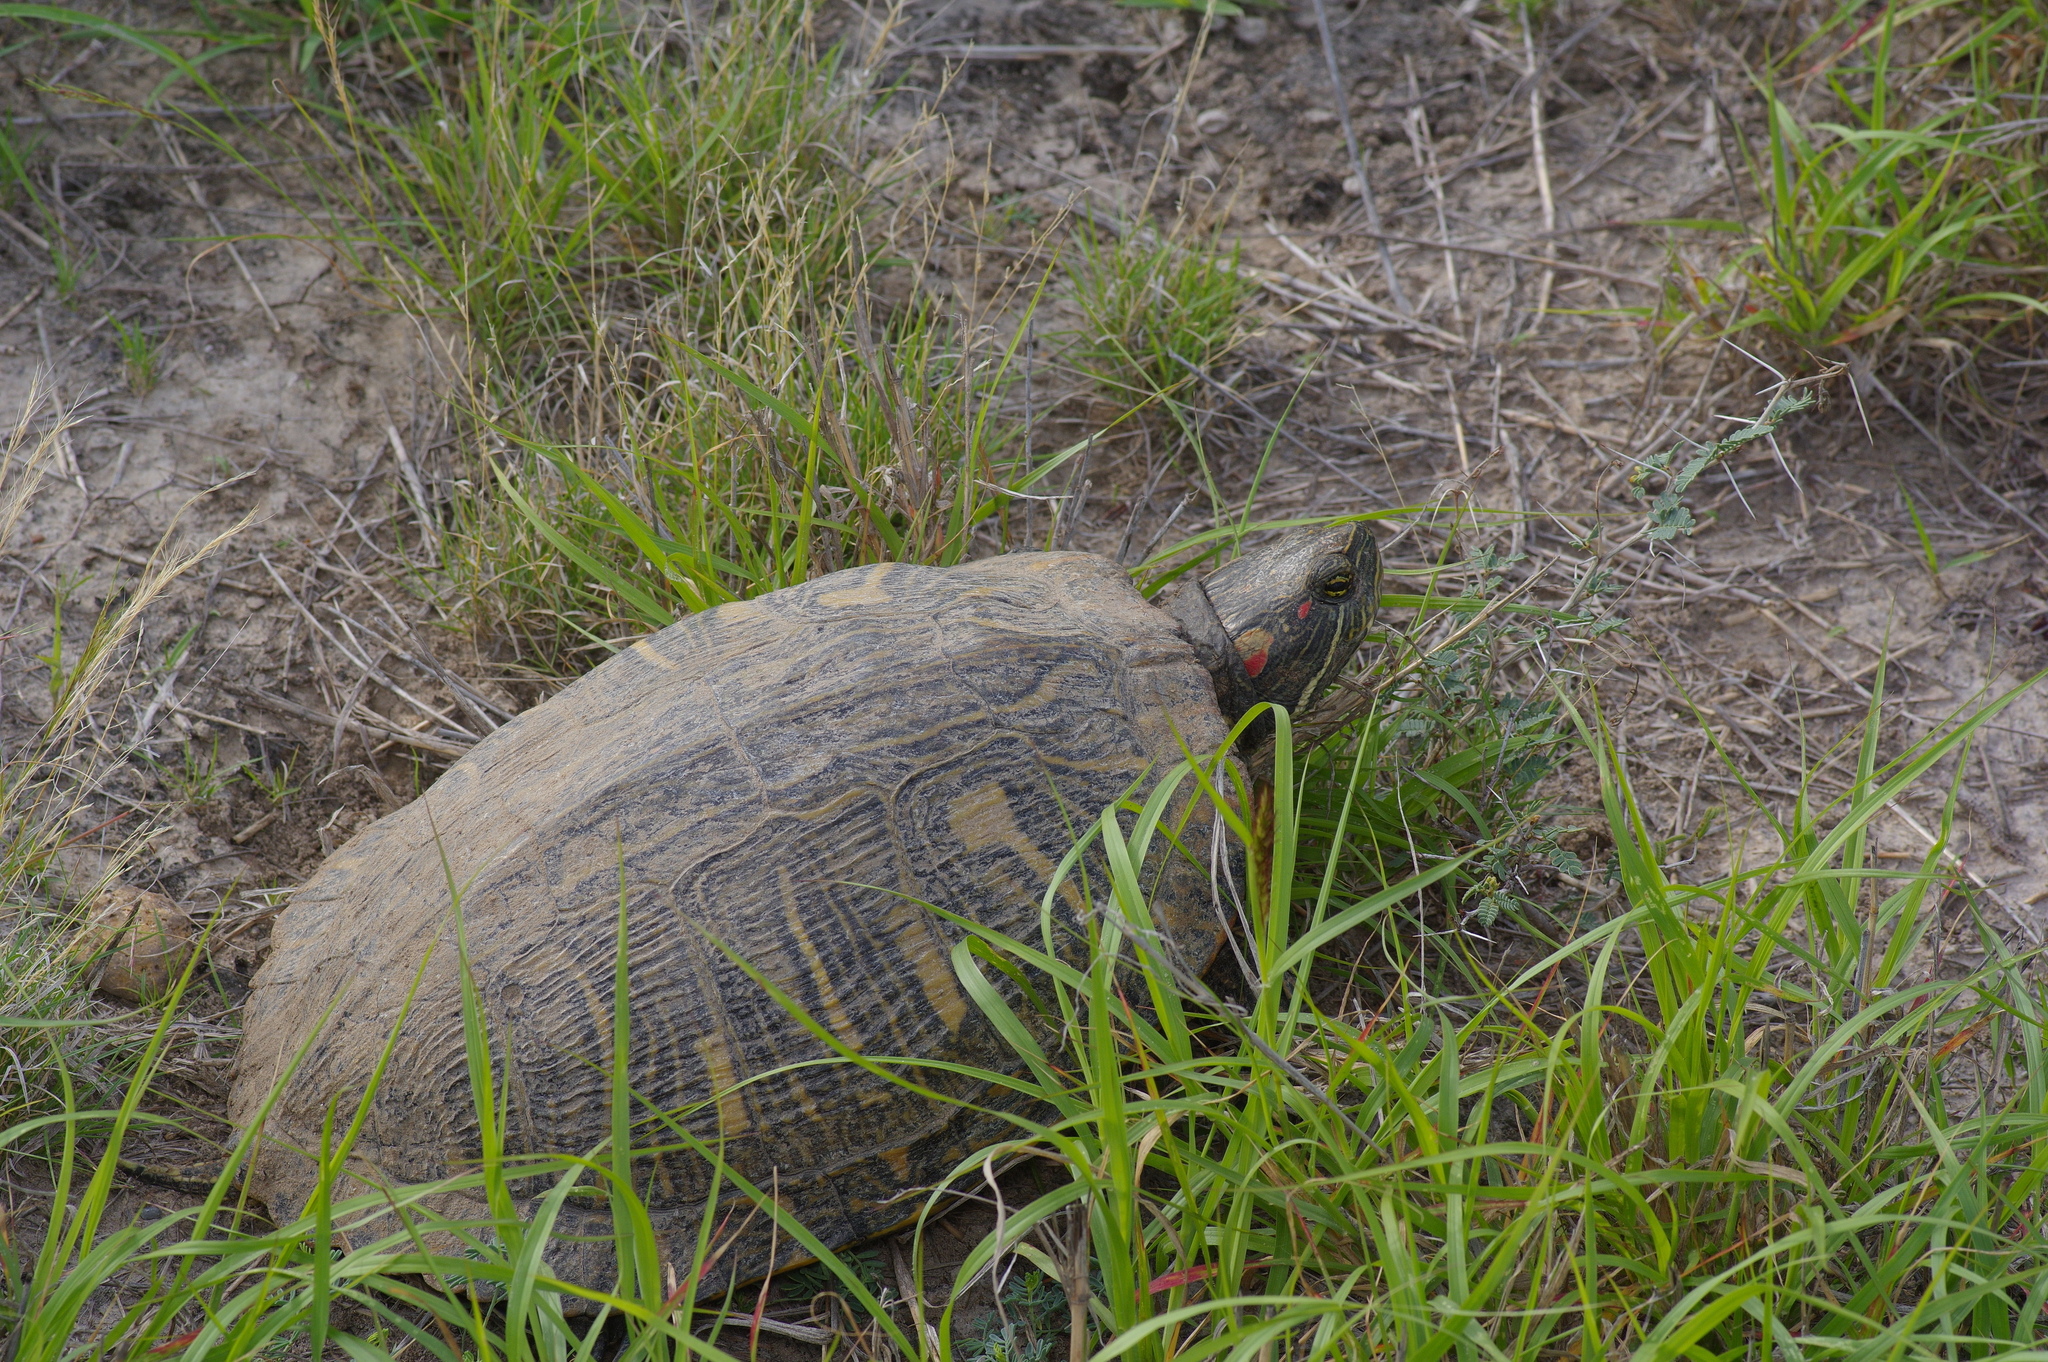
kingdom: Animalia
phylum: Chordata
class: Testudines
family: Emydidae
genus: Trachemys
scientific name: Trachemys scripta
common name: Slider
